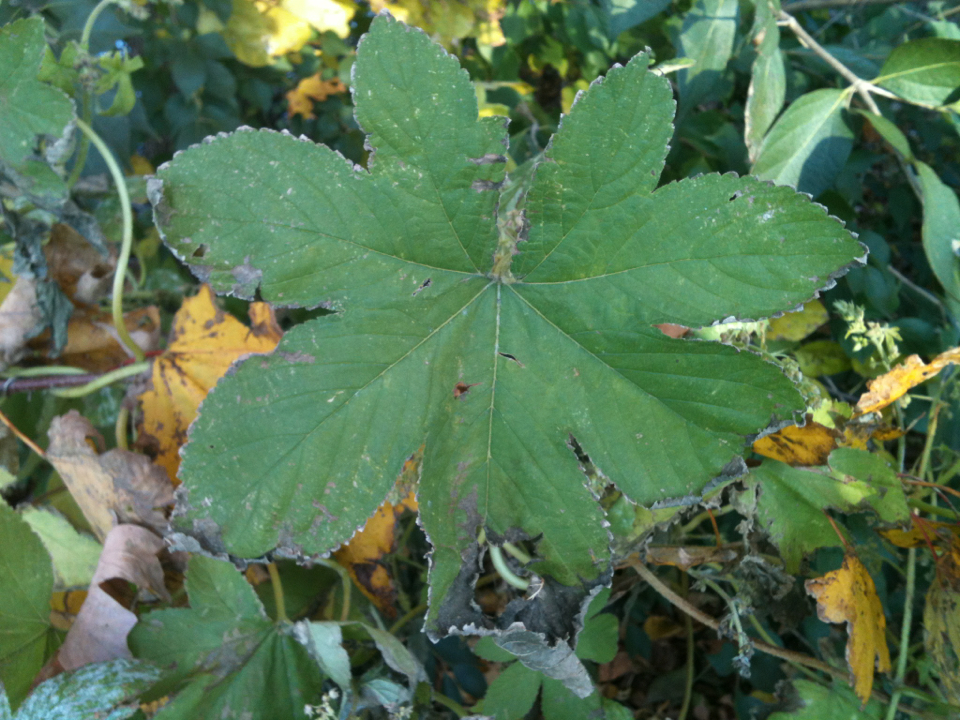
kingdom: Plantae
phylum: Tracheophyta
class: Magnoliopsida
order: Rosales
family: Cannabaceae
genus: Humulus
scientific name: Humulus scandens
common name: Japanese hop
